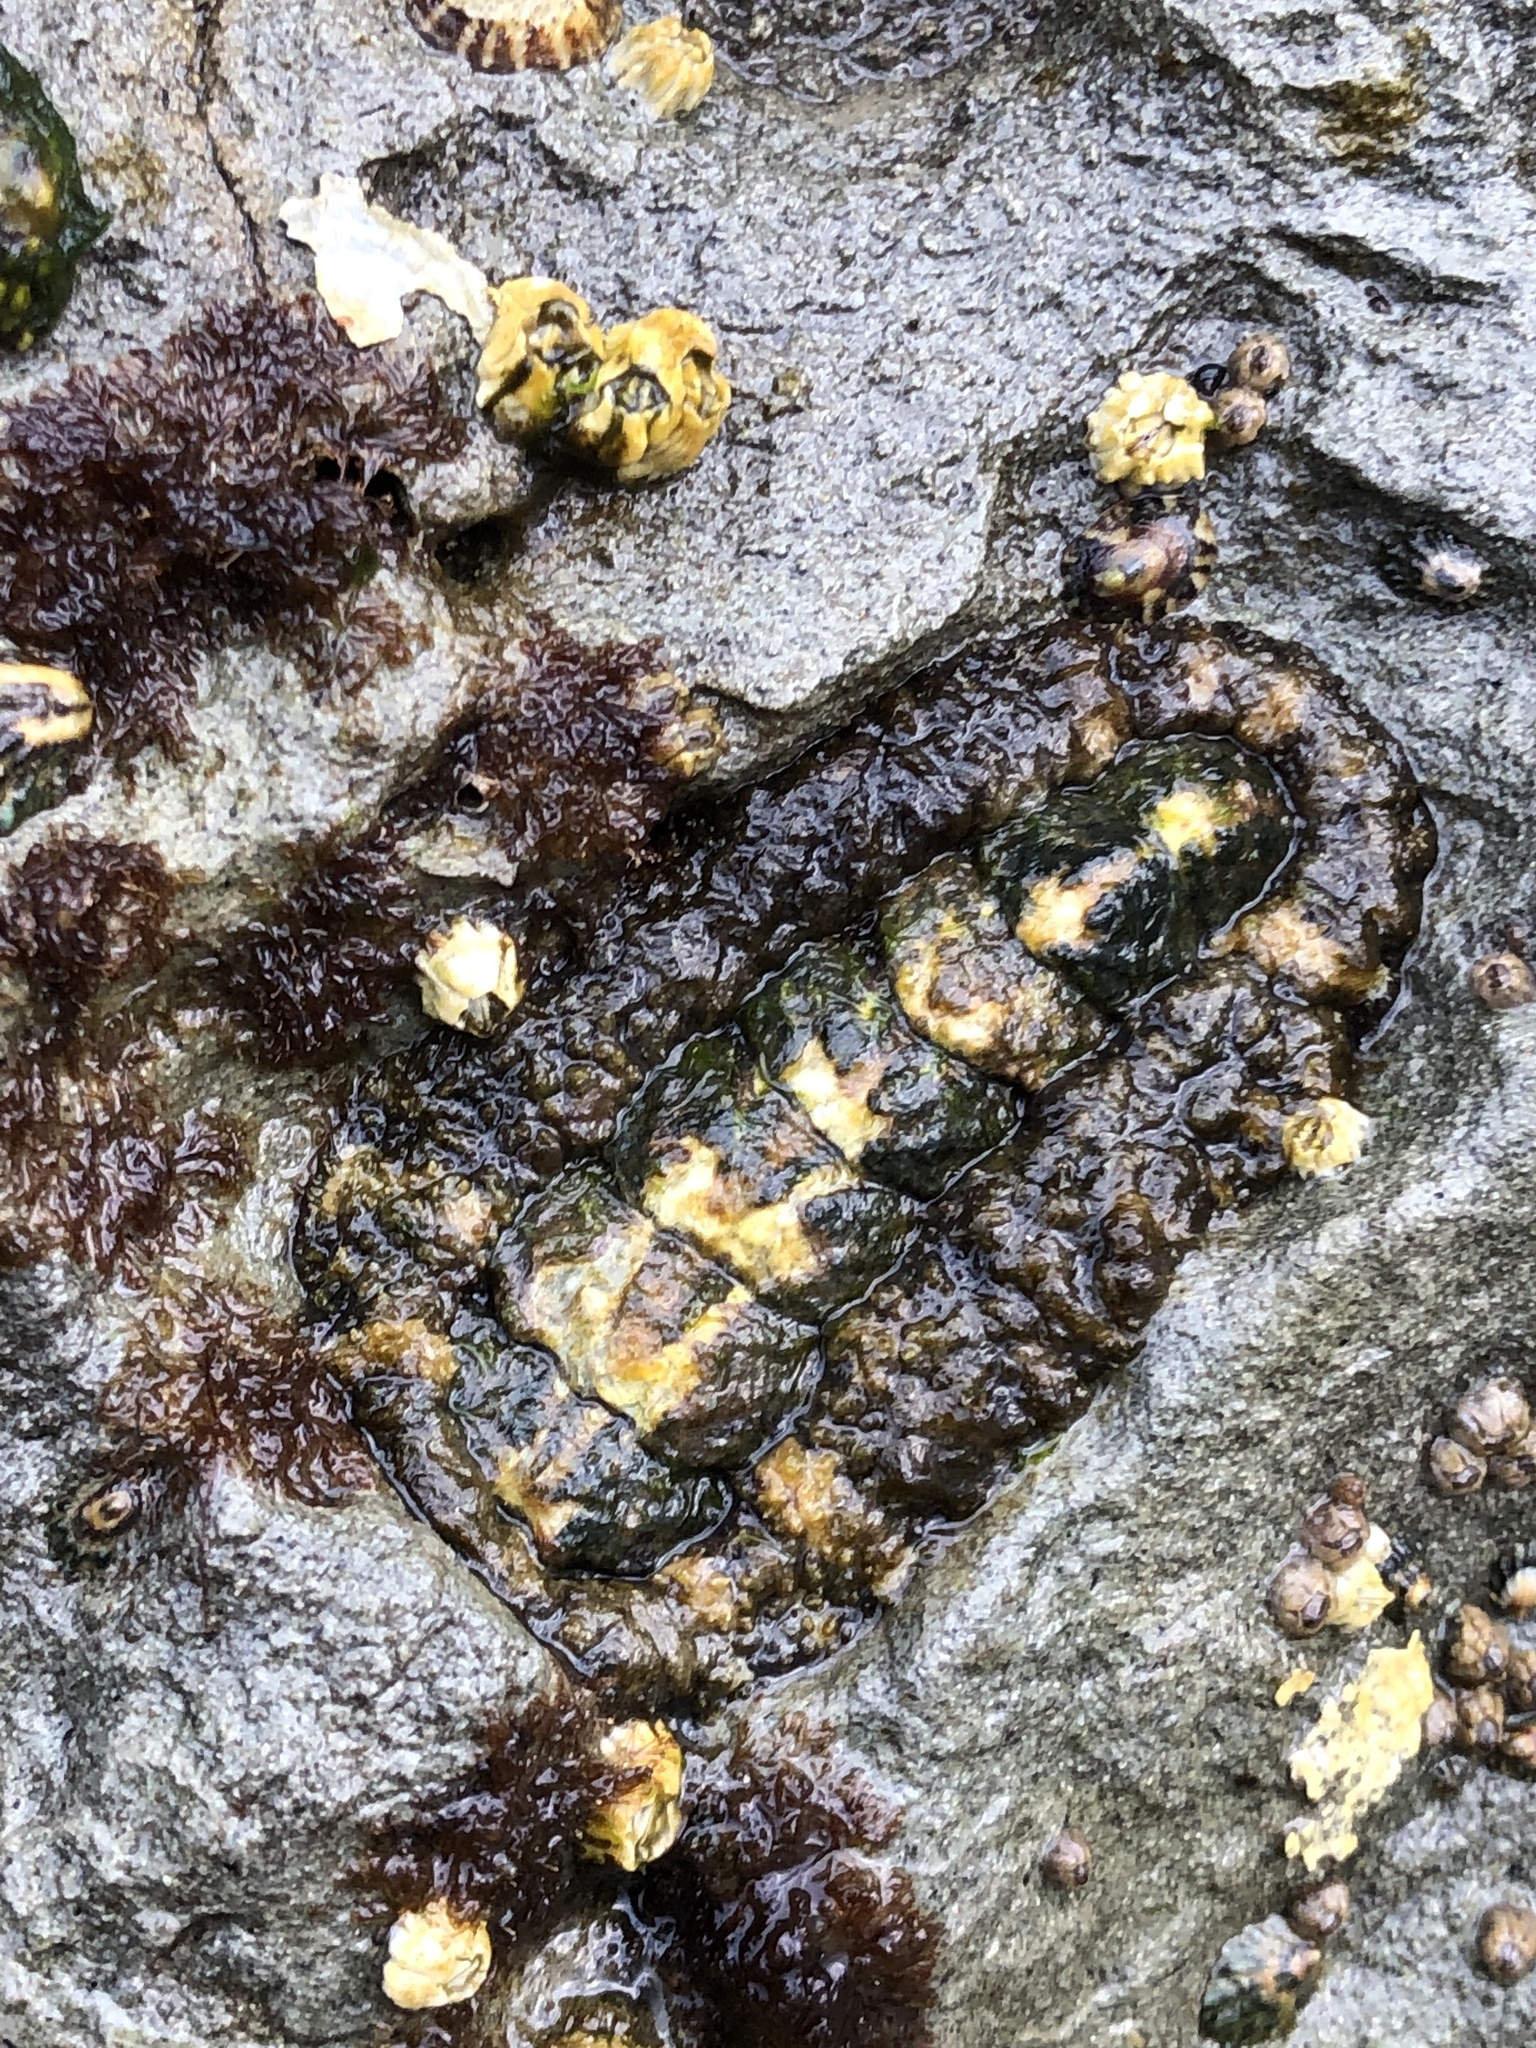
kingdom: Animalia
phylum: Mollusca
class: Polyplacophora
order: Chitonida
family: Tonicellidae
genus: Nuttallina
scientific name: Nuttallina californica
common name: California nuttall chiton
